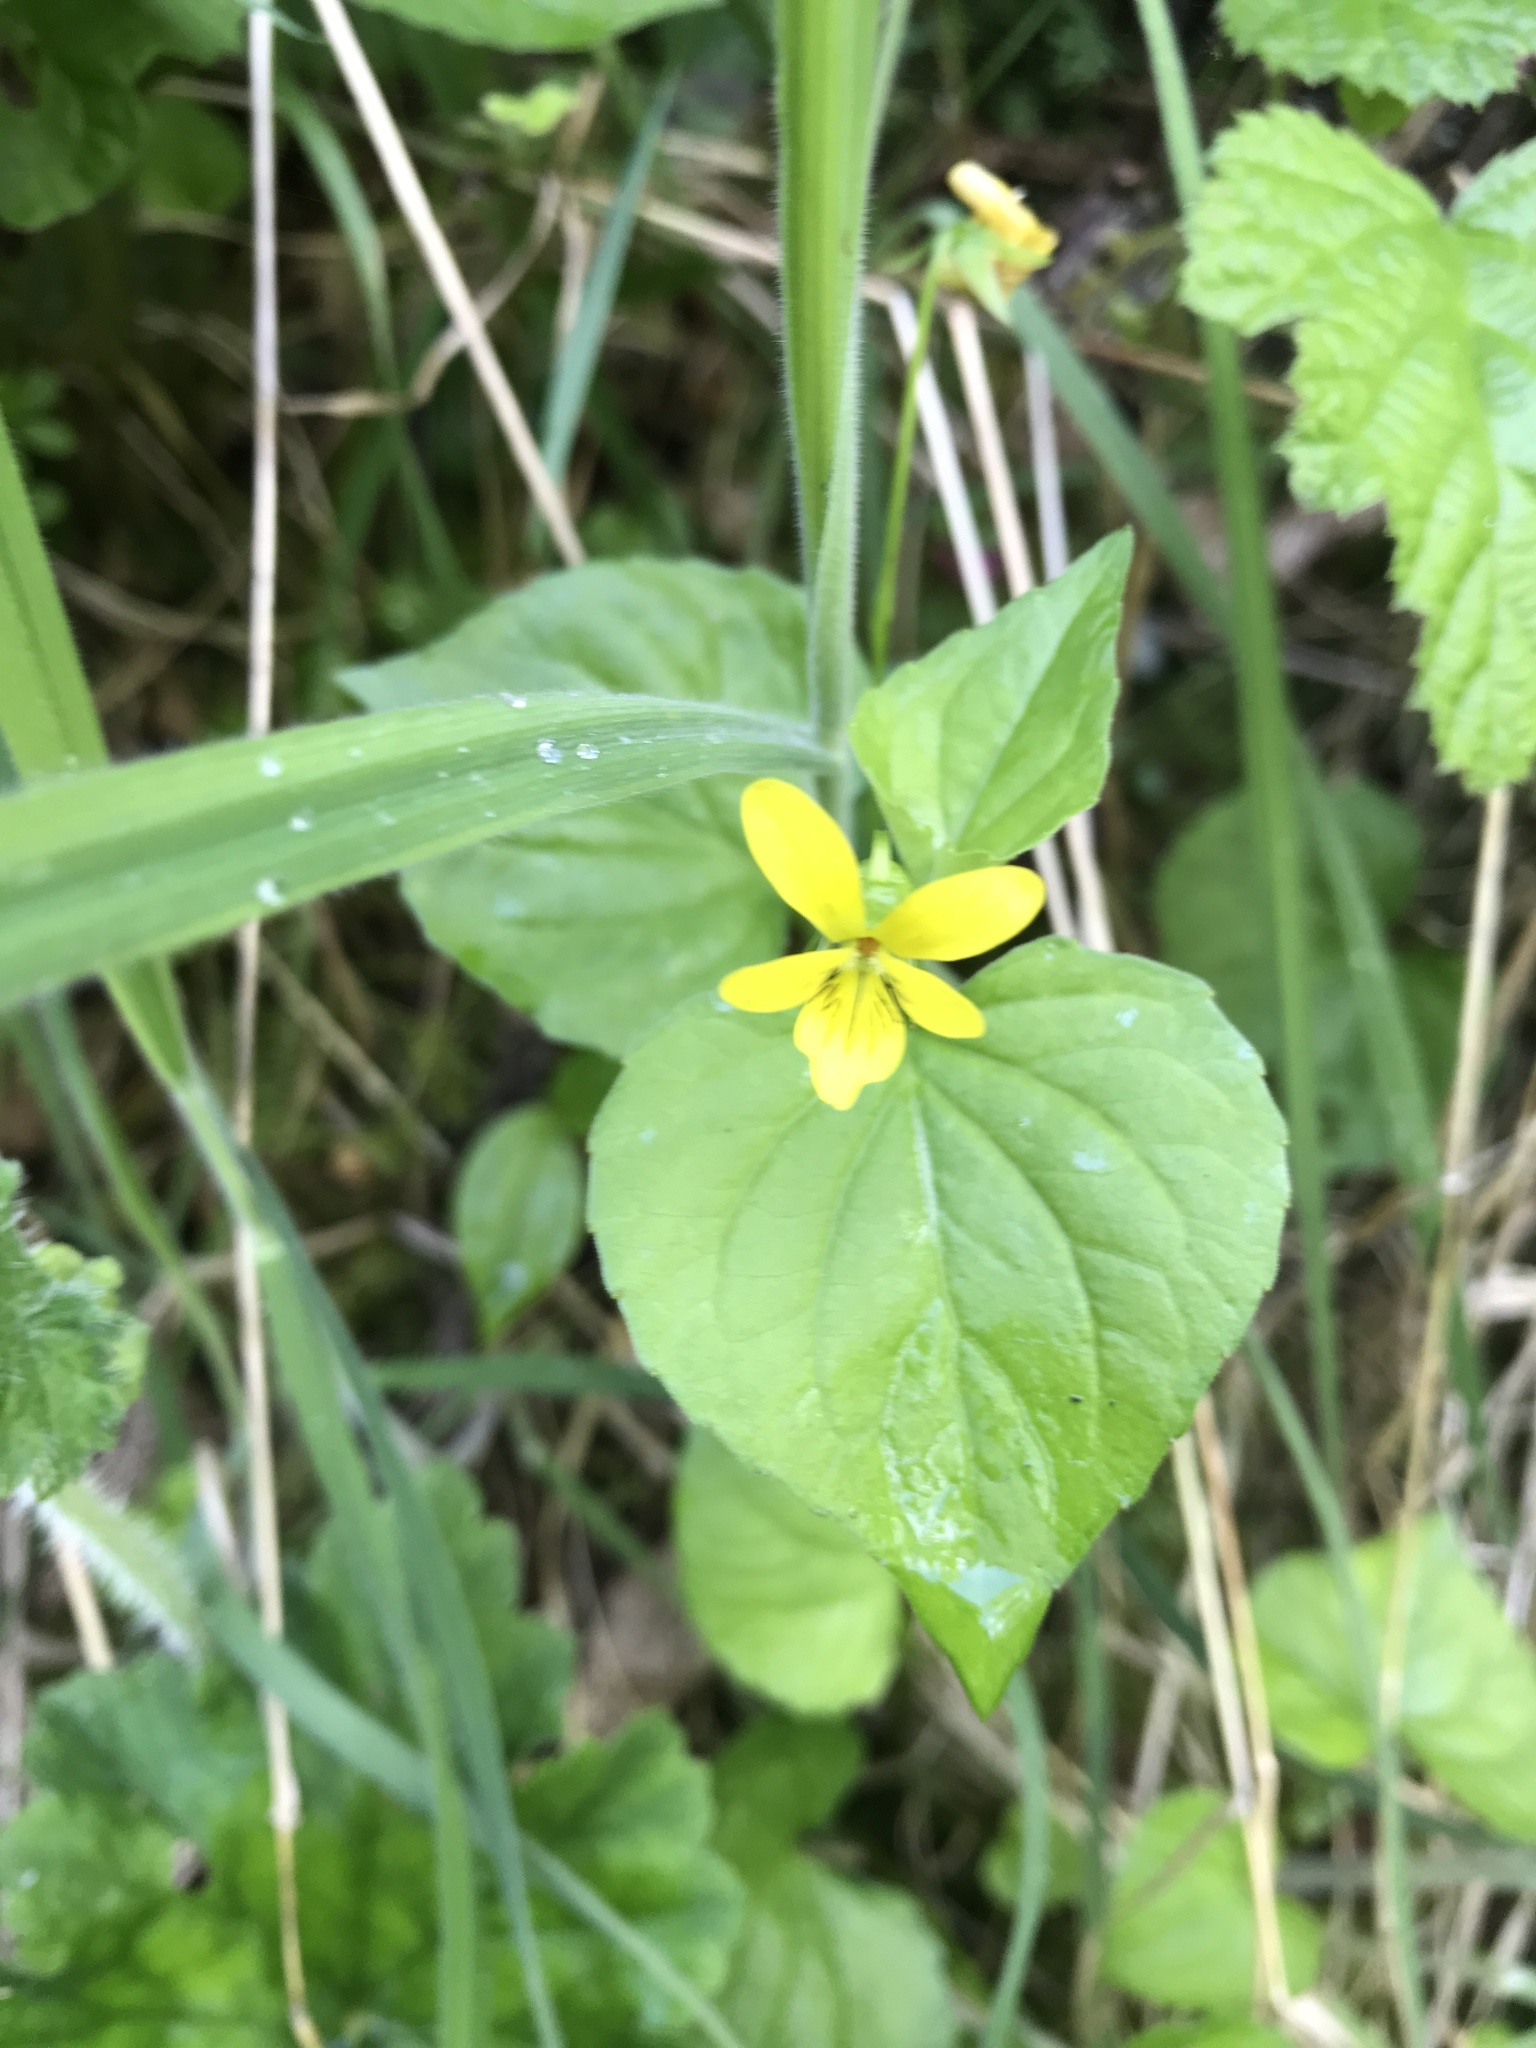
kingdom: Plantae
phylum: Tracheophyta
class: Magnoliopsida
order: Malpighiales
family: Violaceae
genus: Viola
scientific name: Viola glabella
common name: Stream violet
